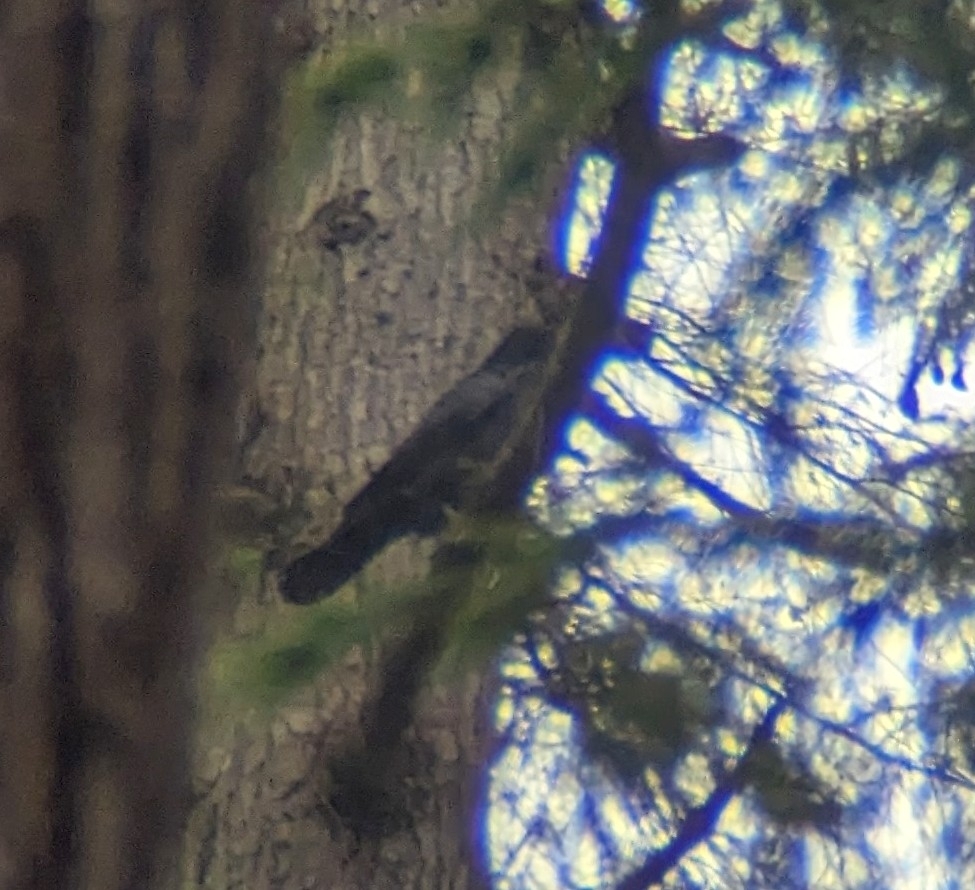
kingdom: Animalia
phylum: Chordata
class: Aves
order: Passeriformes
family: Corvidae
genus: Corvus
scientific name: Corvus corax
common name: Common raven
